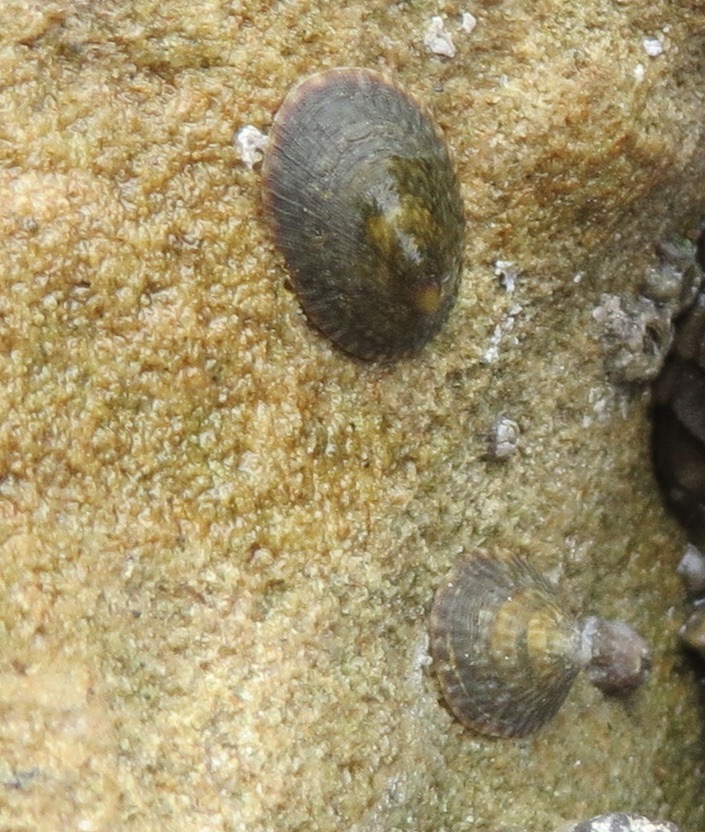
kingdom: Animalia
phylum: Mollusca
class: Gastropoda
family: Lottiidae
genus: Lottia
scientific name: Lottia limatula
